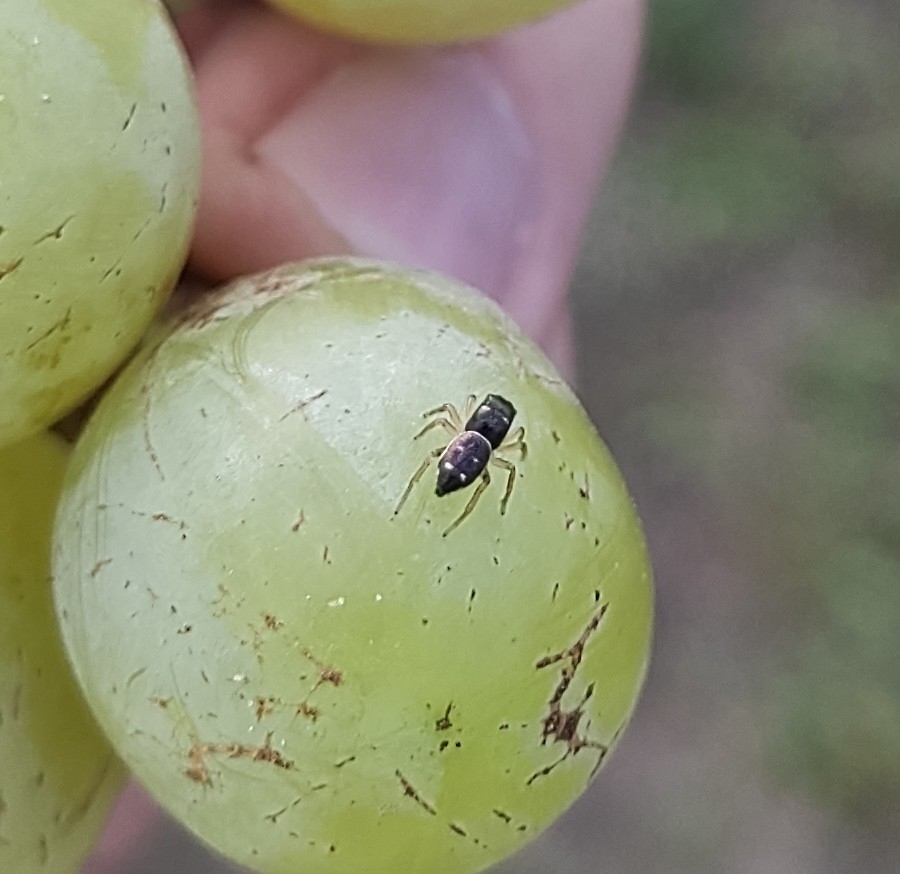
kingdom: Animalia
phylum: Arthropoda
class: Arachnida
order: Araneae
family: Salticidae
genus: Heliophanus
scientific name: Heliophanus cupreus
